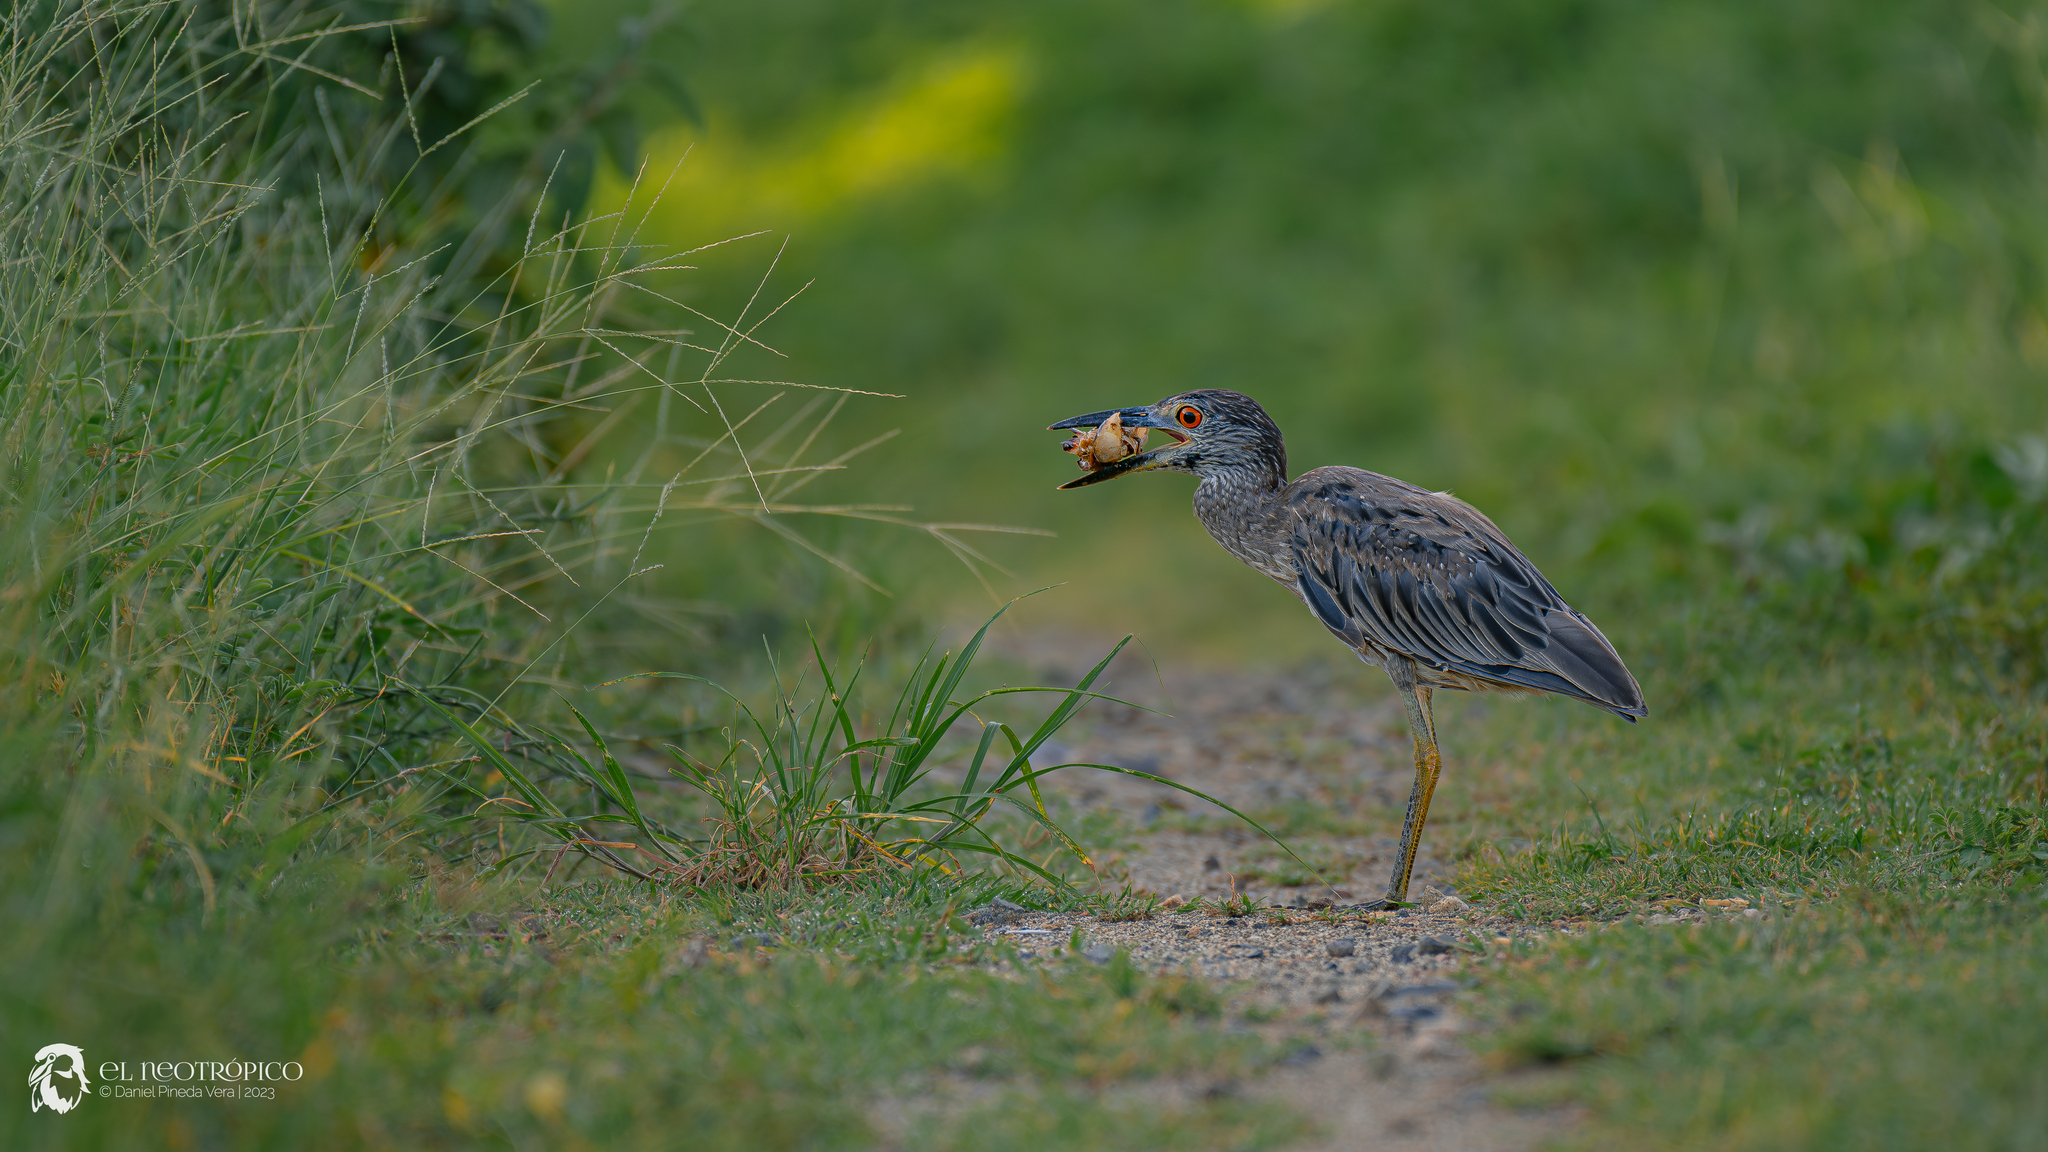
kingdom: Animalia
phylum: Chordata
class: Aves
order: Pelecaniformes
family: Ardeidae
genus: Nyctanassa
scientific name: Nyctanassa violacea
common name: Yellow-crowned night heron
